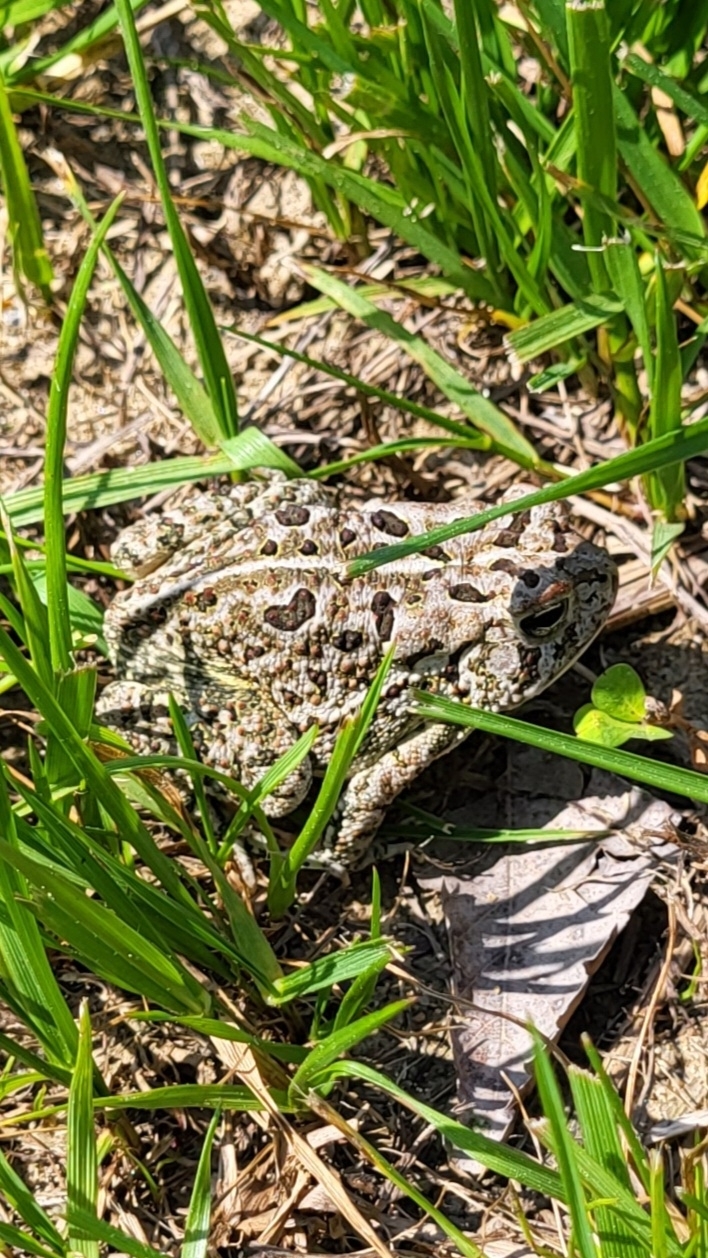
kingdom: Animalia
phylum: Chordata
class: Amphibia
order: Anura
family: Bufonidae
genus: Anaxyrus
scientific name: Anaxyrus fowleri
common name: Fowler's toad
